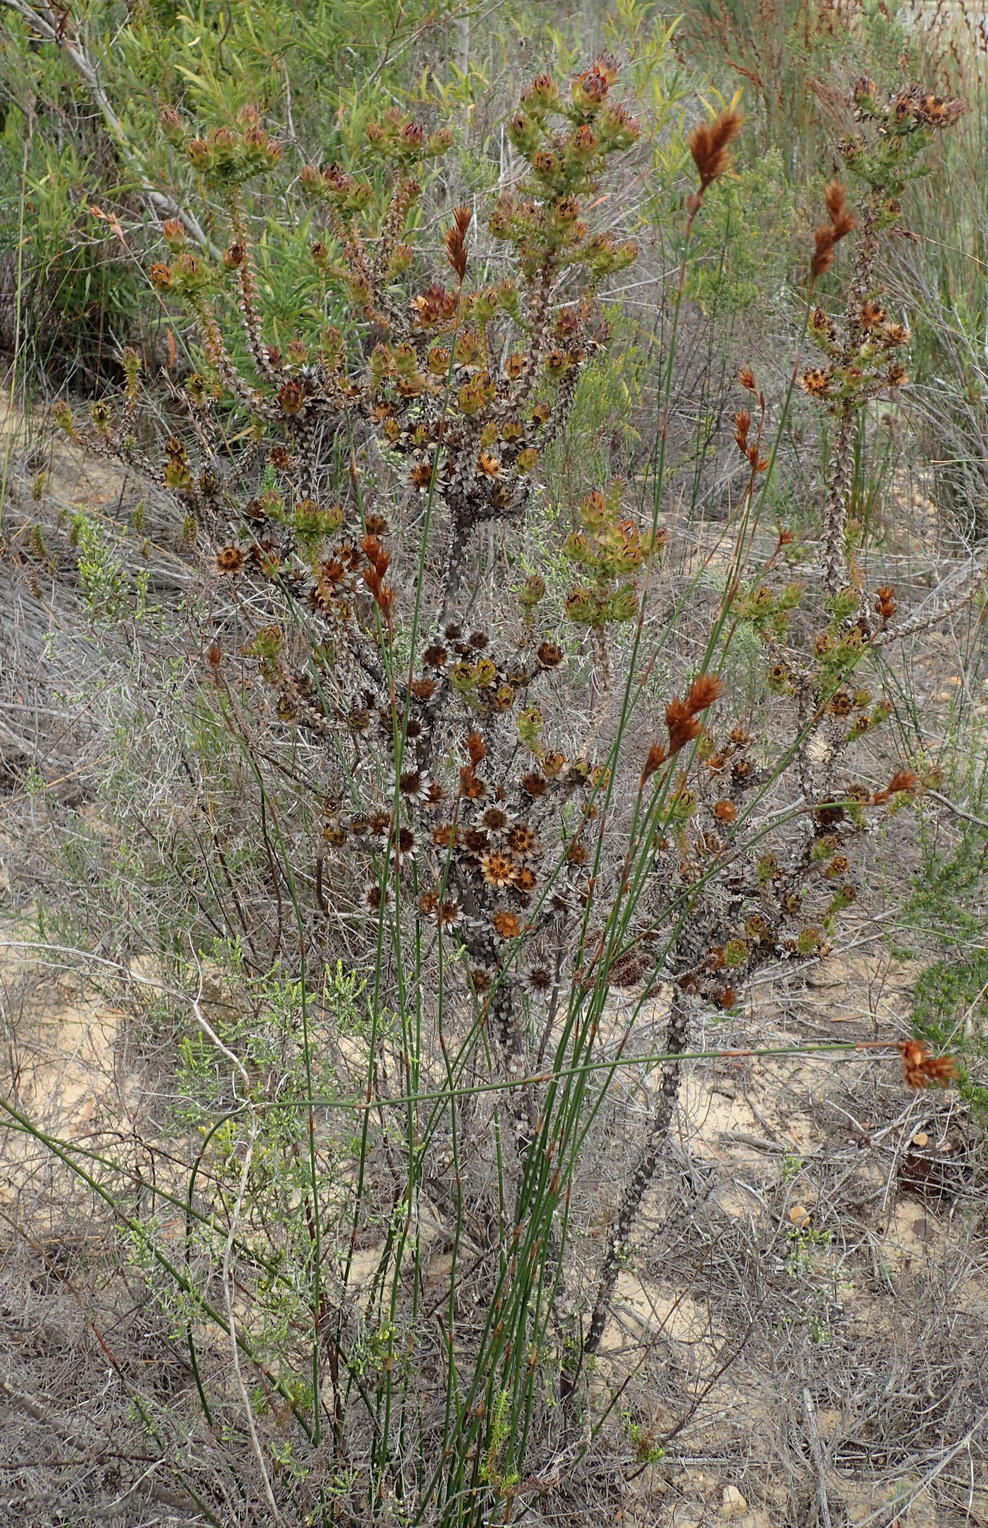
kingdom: Plantae
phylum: Tracheophyta
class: Magnoliopsida
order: Asterales
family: Asteraceae
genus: Oedera
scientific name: Oedera imbricata
